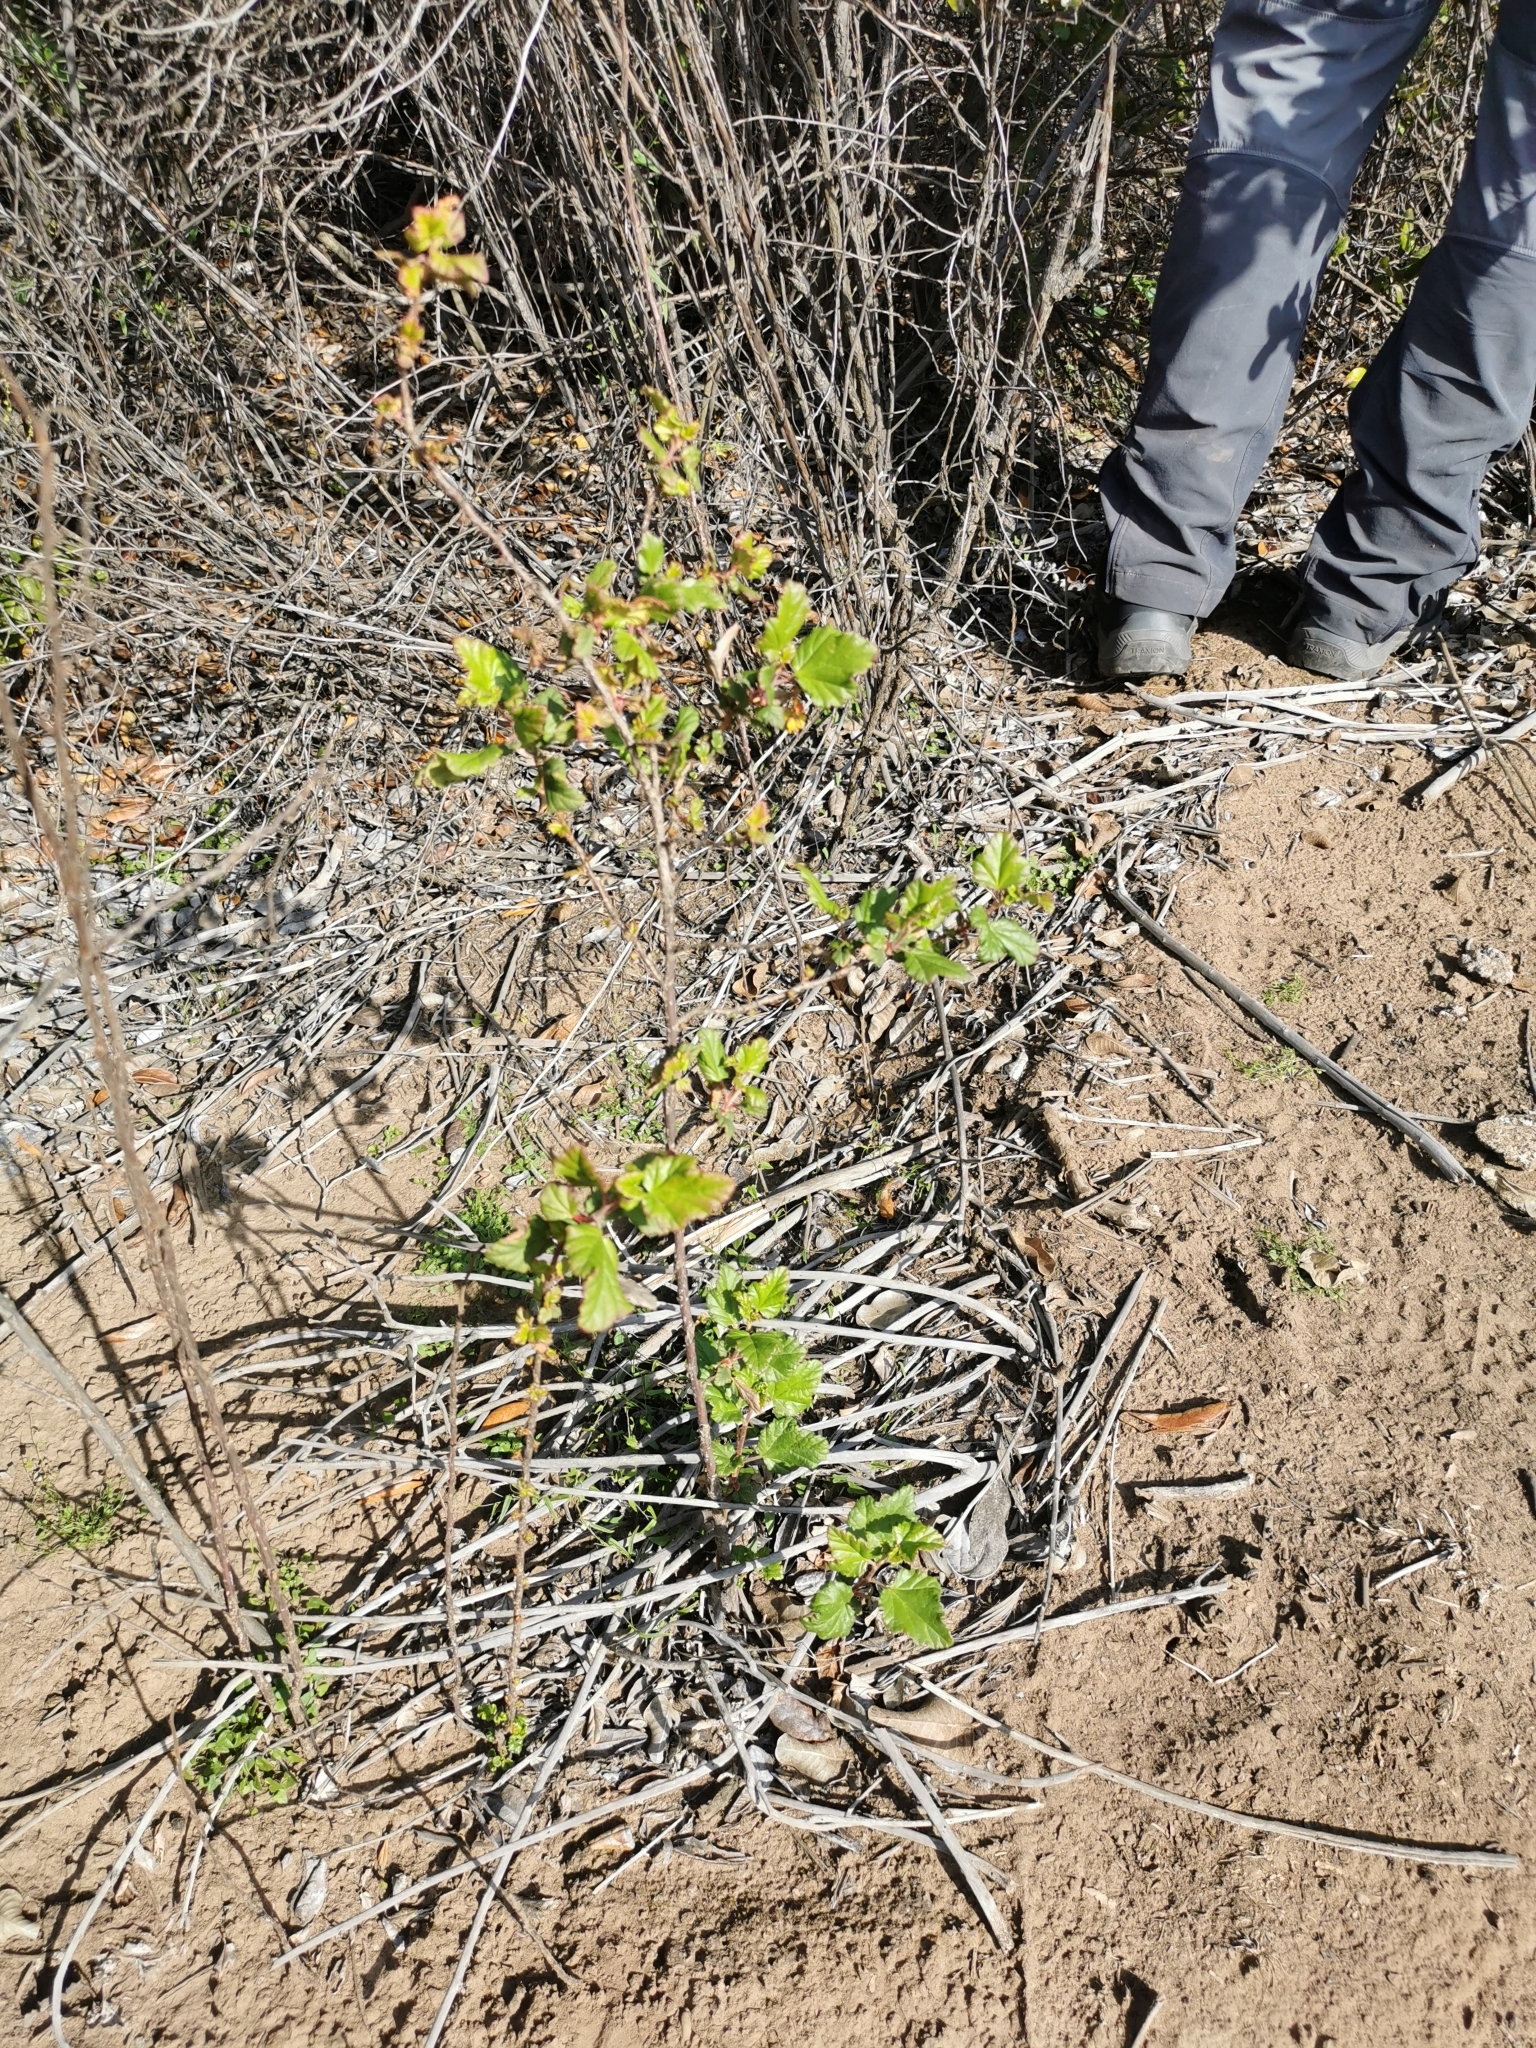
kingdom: Plantae
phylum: Tracheophyta
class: Magnoliopsida
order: Saxifragales
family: Grossulariaceae
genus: Ribes
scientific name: Ribes punctatum
